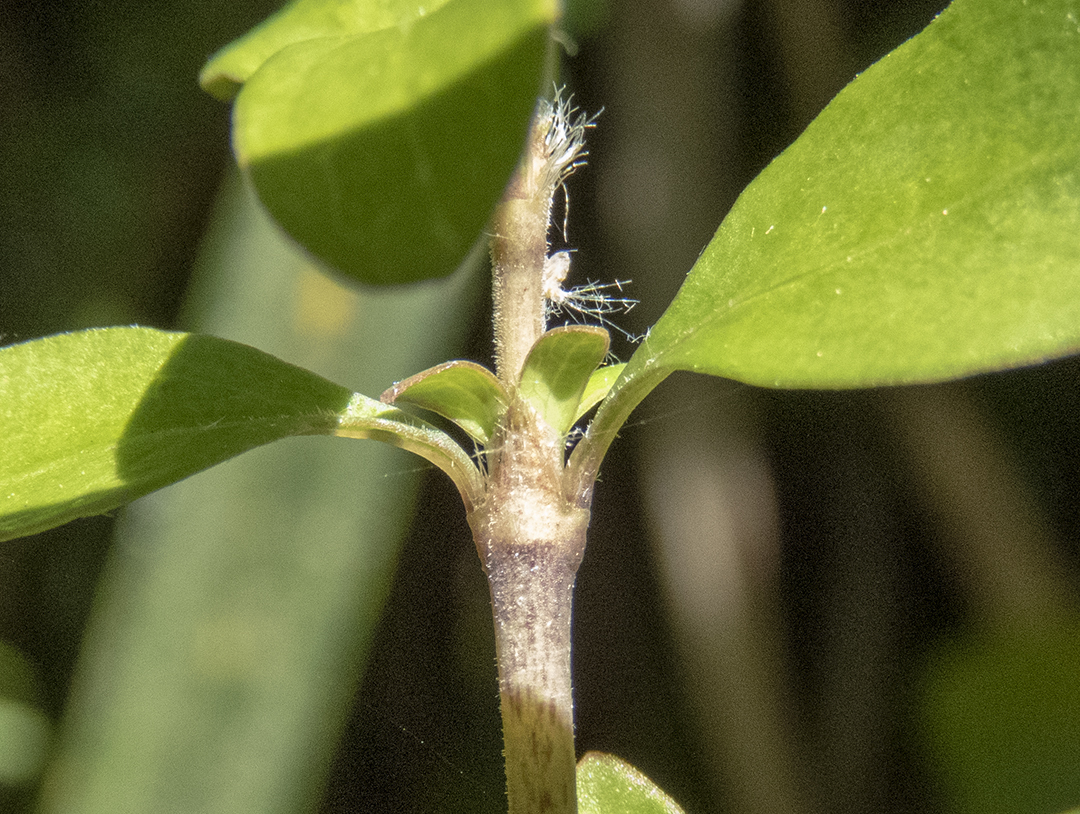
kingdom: Plantae
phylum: Tracheophyta
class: Magnoliopsida
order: Gentianales
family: Rubiaceae
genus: Coprosma
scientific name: Coprosma rhamnoides
